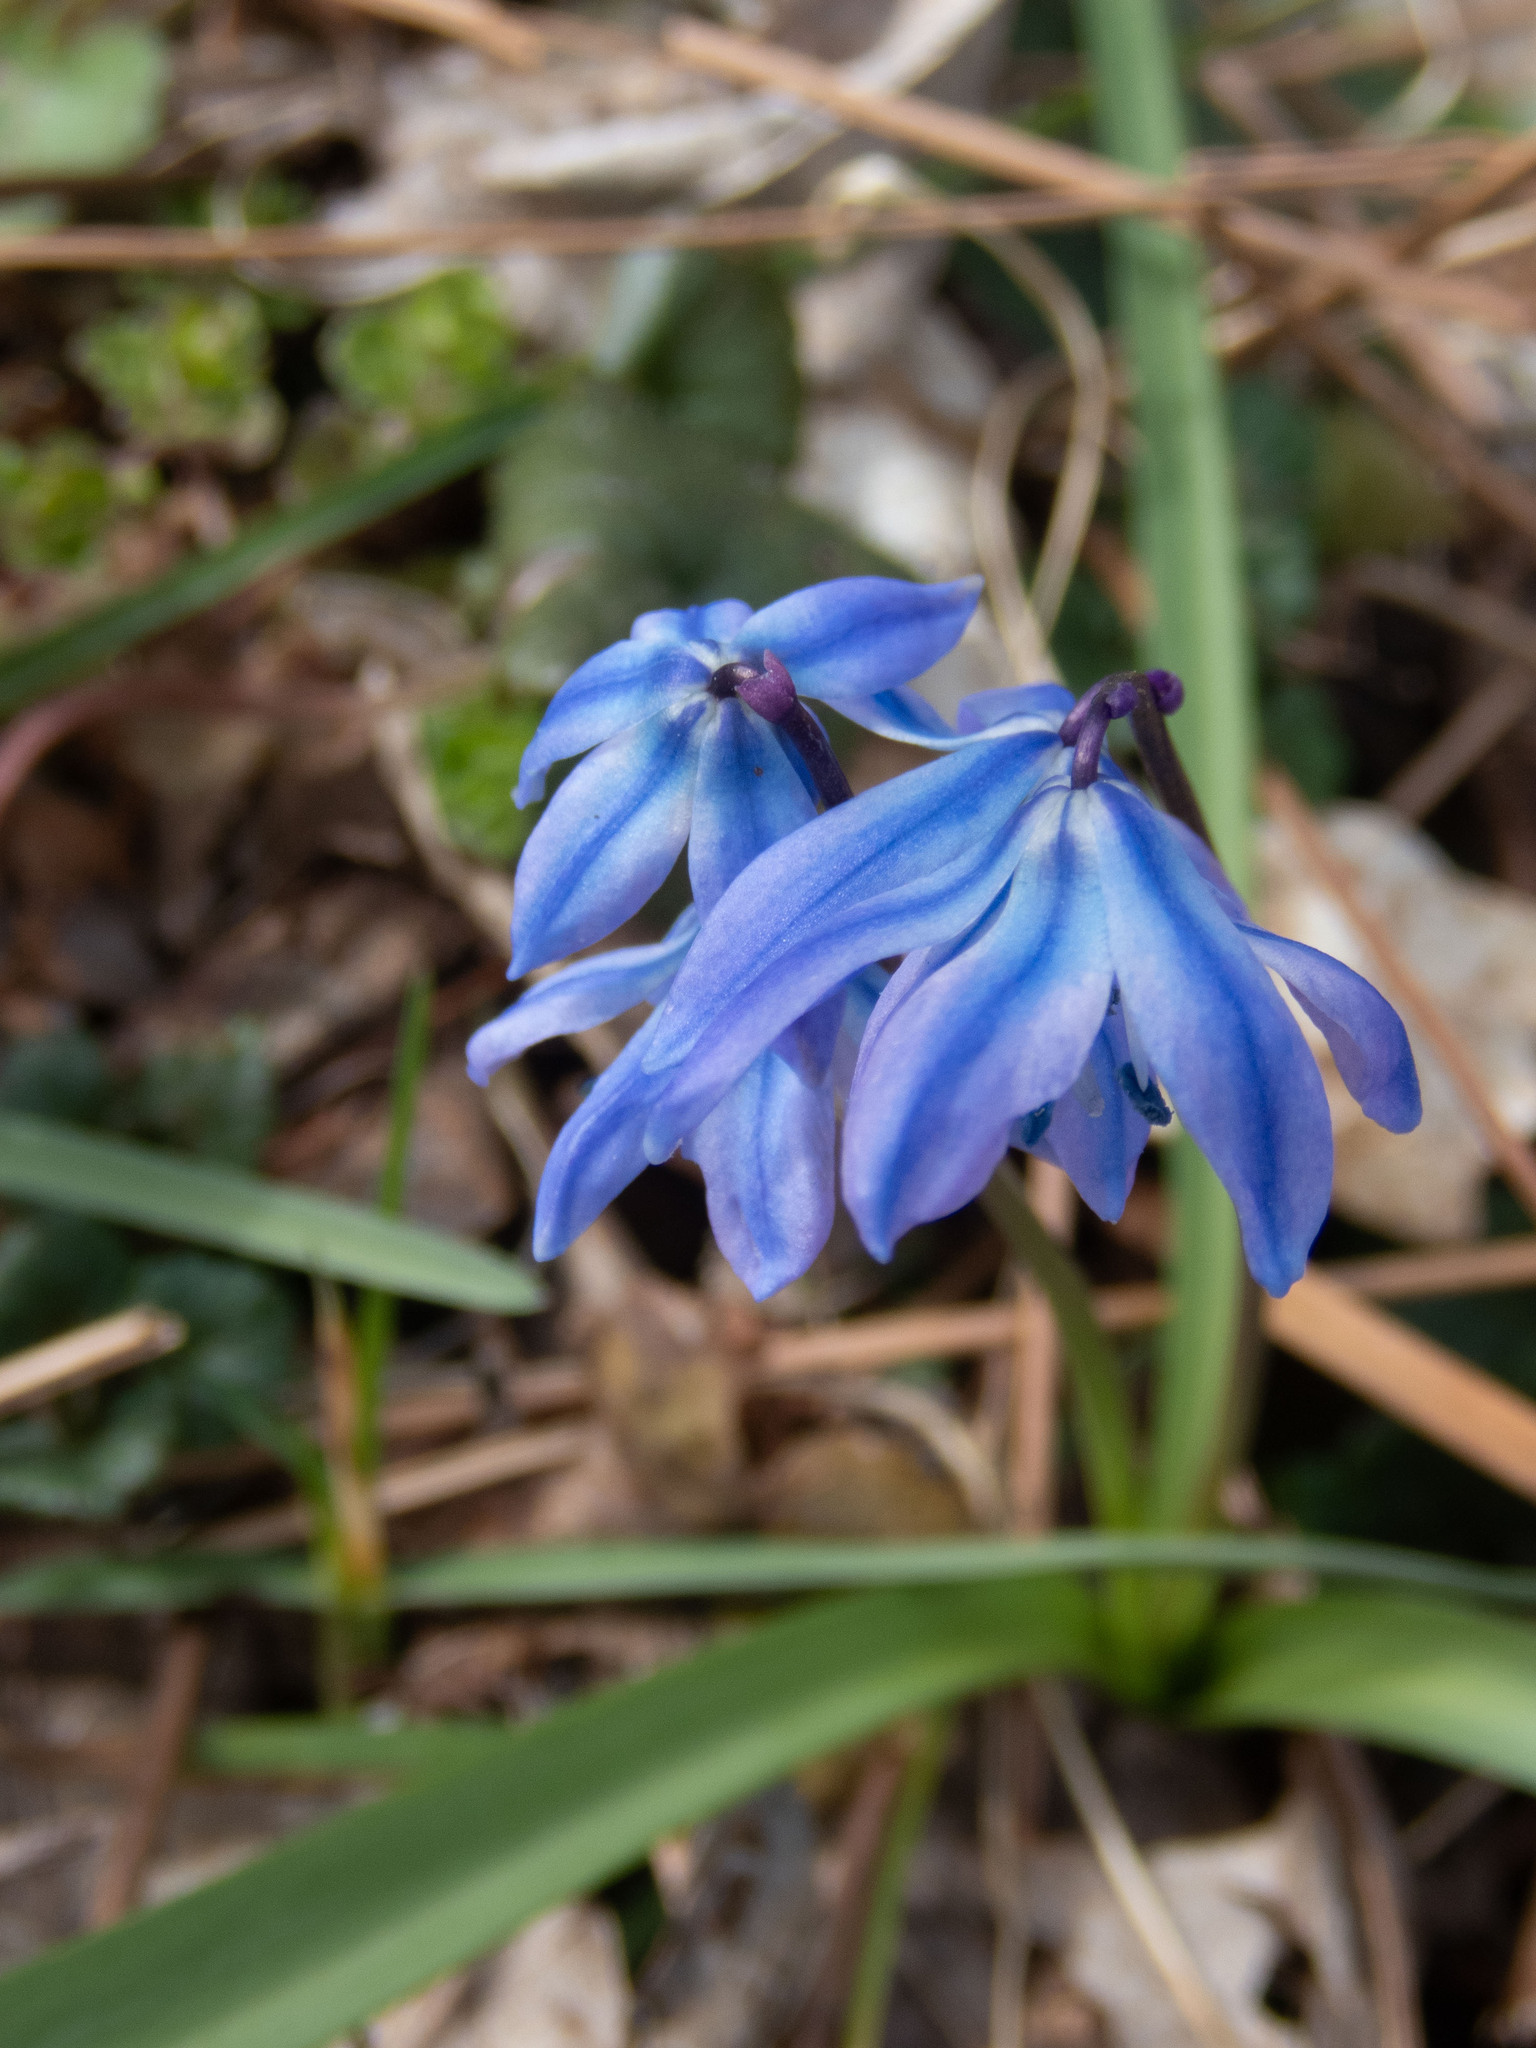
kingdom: Plantae
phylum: Tracheophyta
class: Liliopsida
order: Asparagales
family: Asparagaceae
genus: Scilla
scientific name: Scilla siberica
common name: Siberian squill
